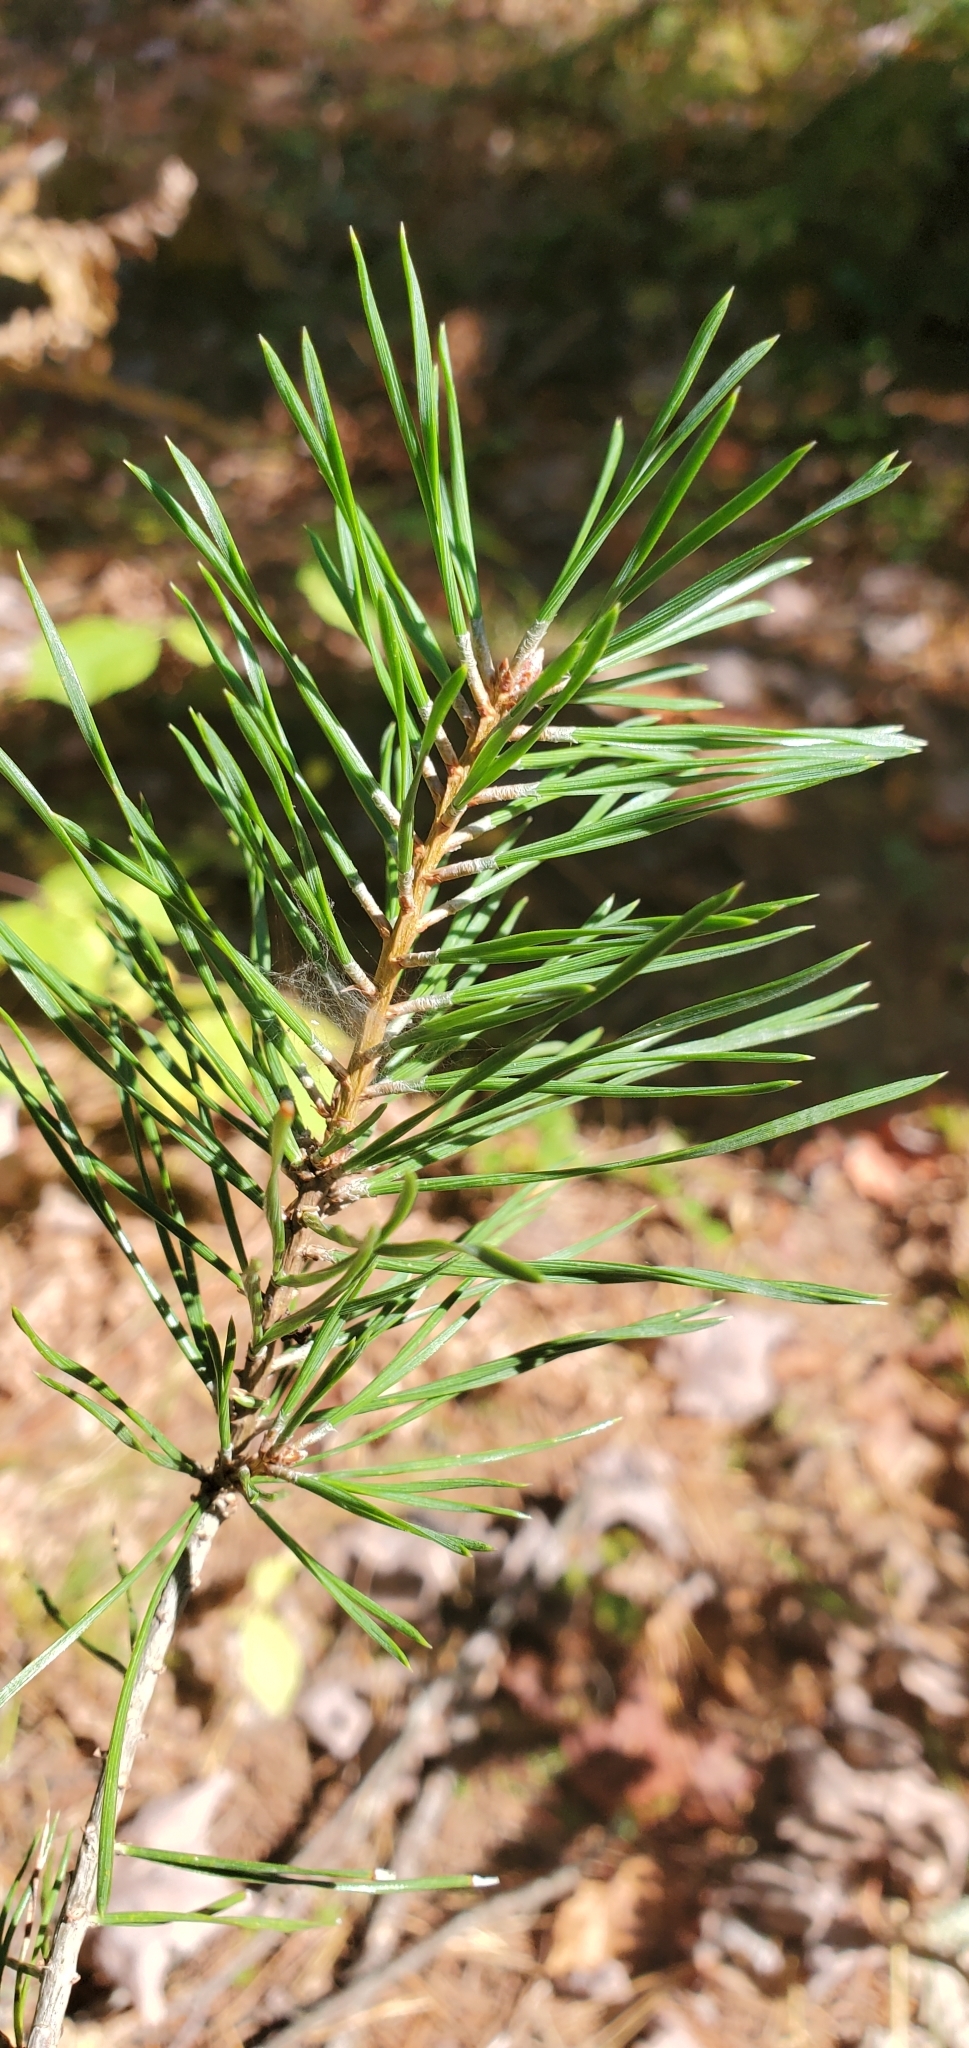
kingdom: Plantae
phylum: Tracheophyta
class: Pinopsida
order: Pinales
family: Pinaceae
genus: Pinus
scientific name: Pinus sylvestris
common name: Scots pine
